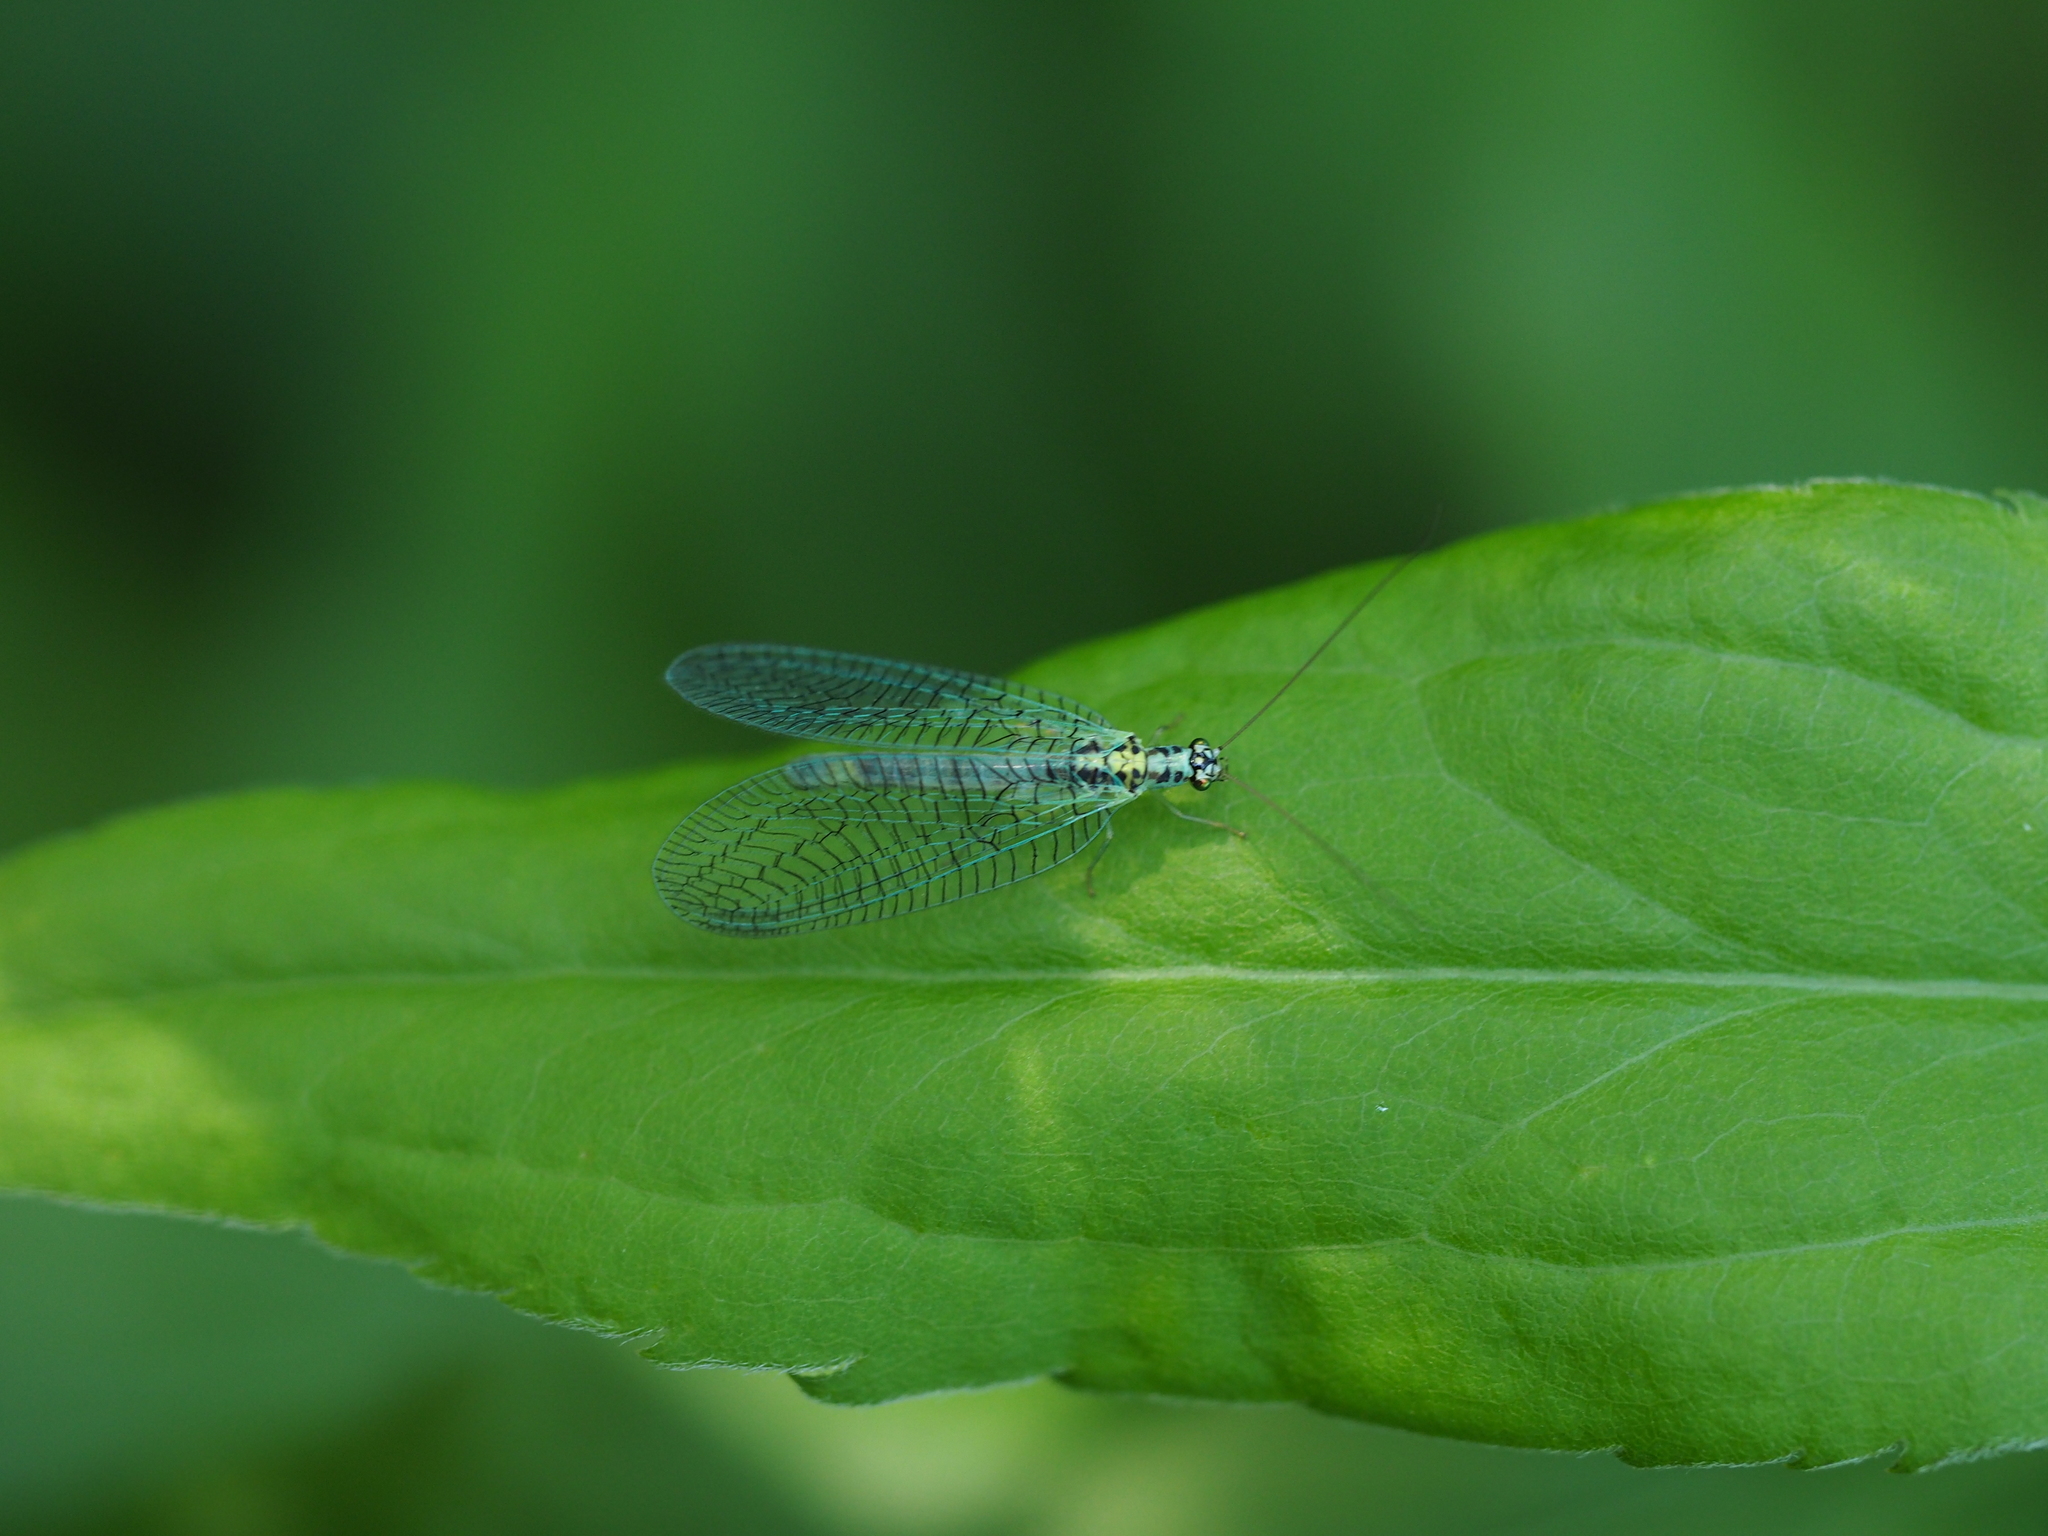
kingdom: Animalia
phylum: Arthropoda
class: Insecta
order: Neuroptera
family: Chrysopidae
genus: Chrysopa
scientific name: Chrysopa perla
